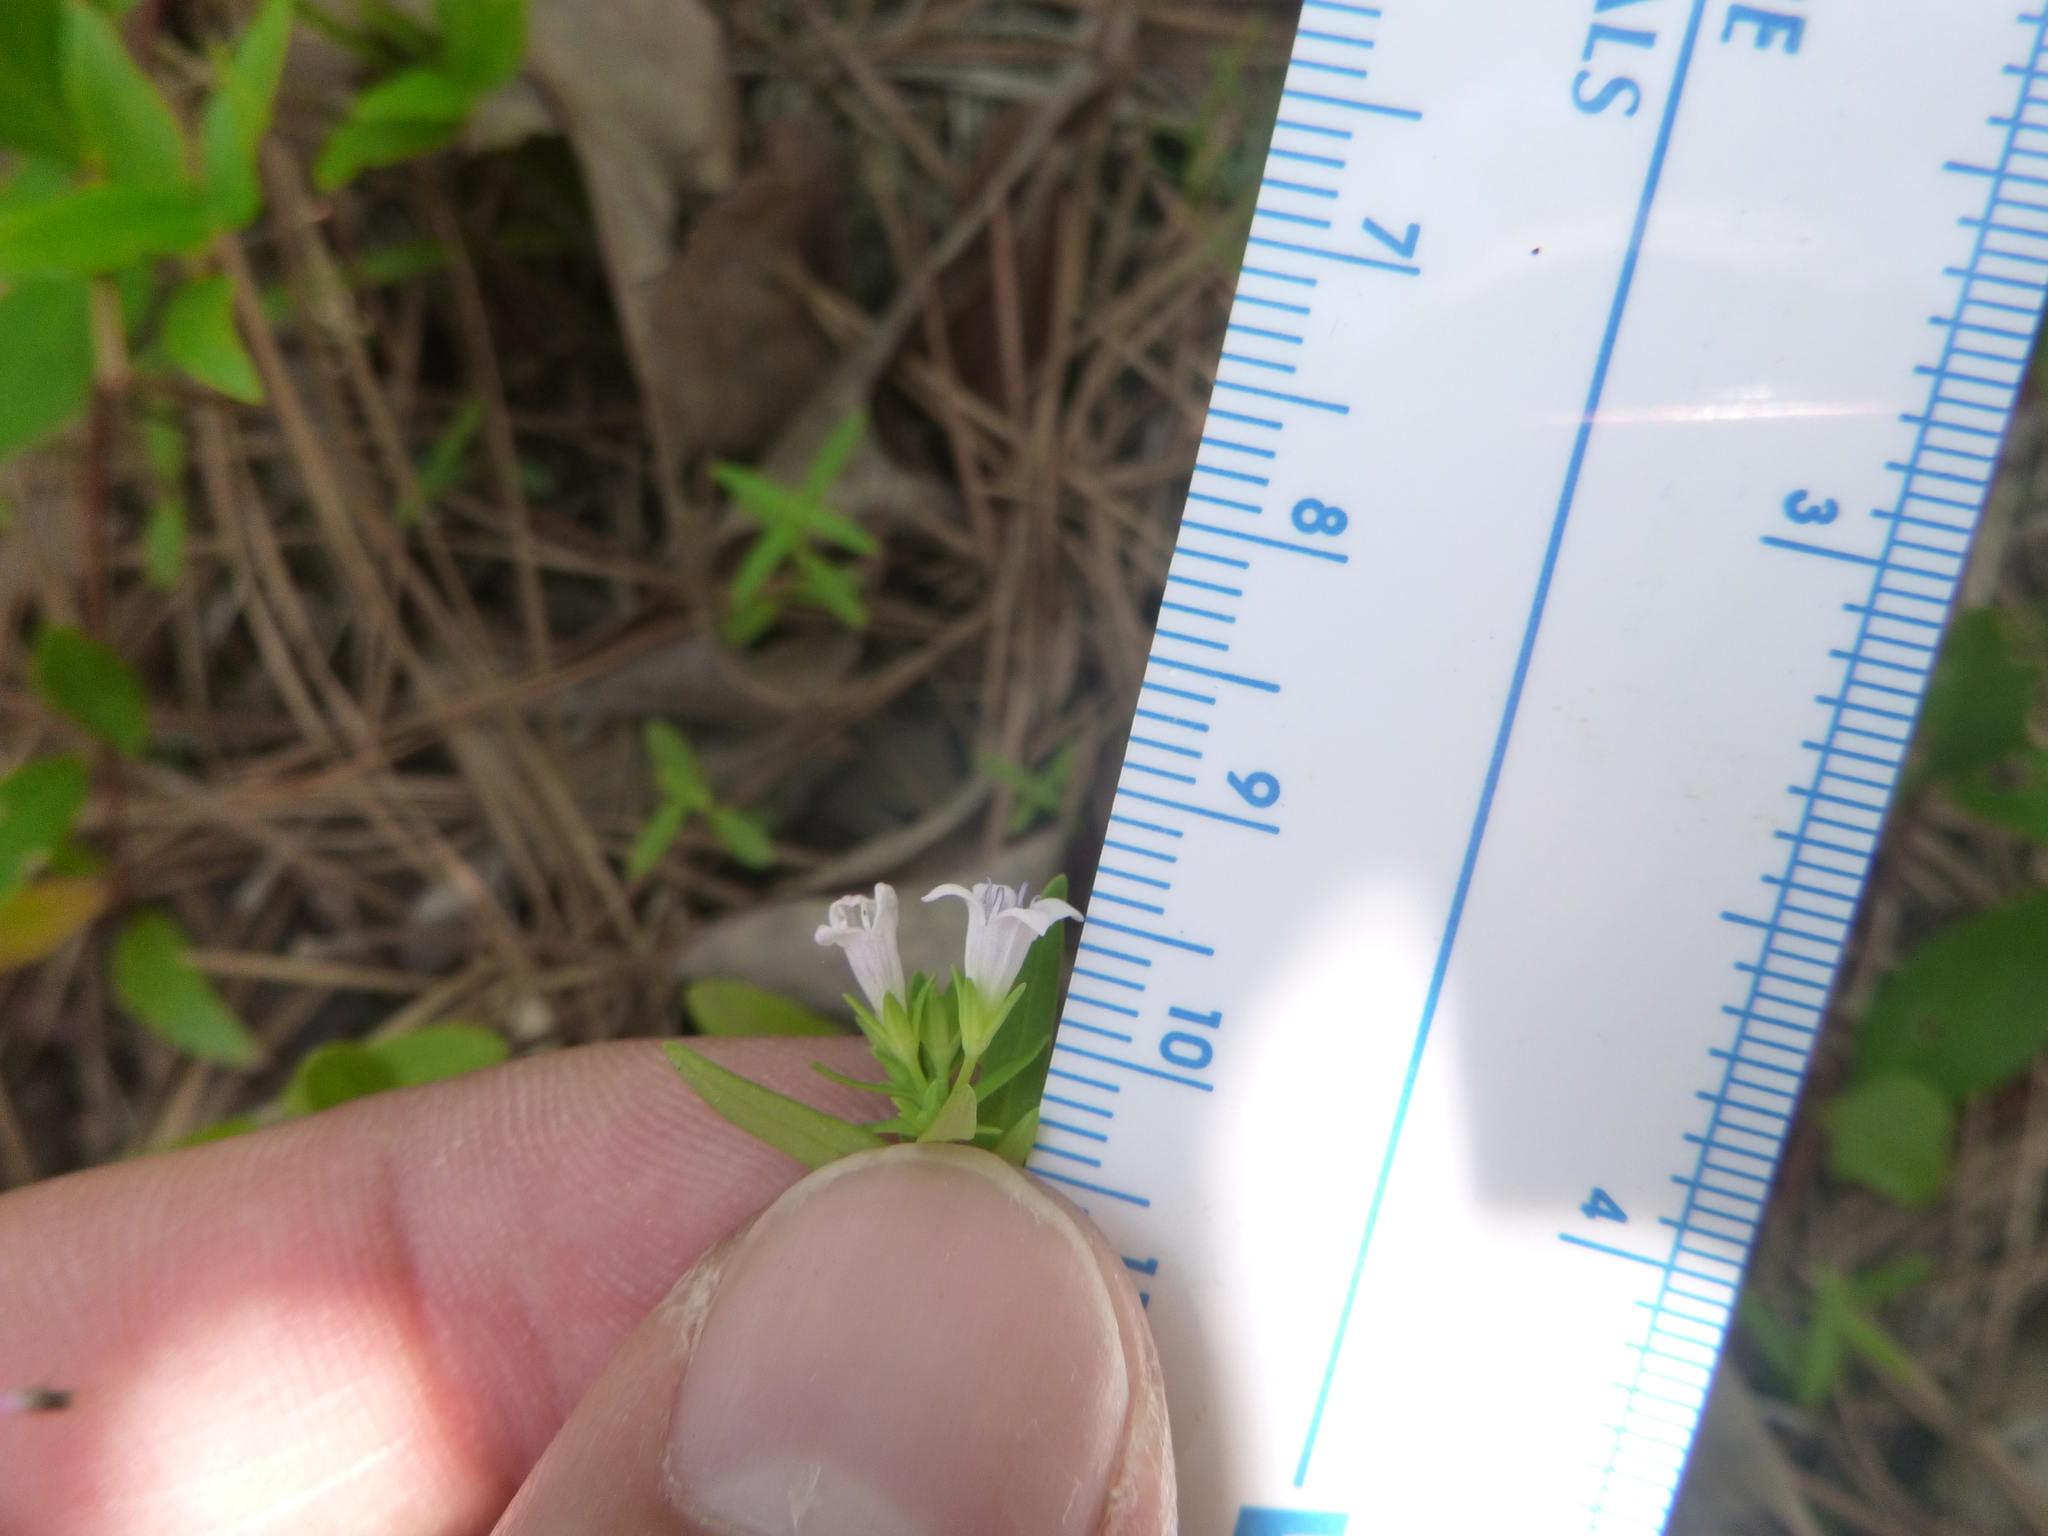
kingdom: Plantae
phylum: Tracheophyta
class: Magnoliopsida
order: Gentianales
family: Rubiaceae
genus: Houstonia
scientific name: Houstonia longifolia
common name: Long-leaved bluets
